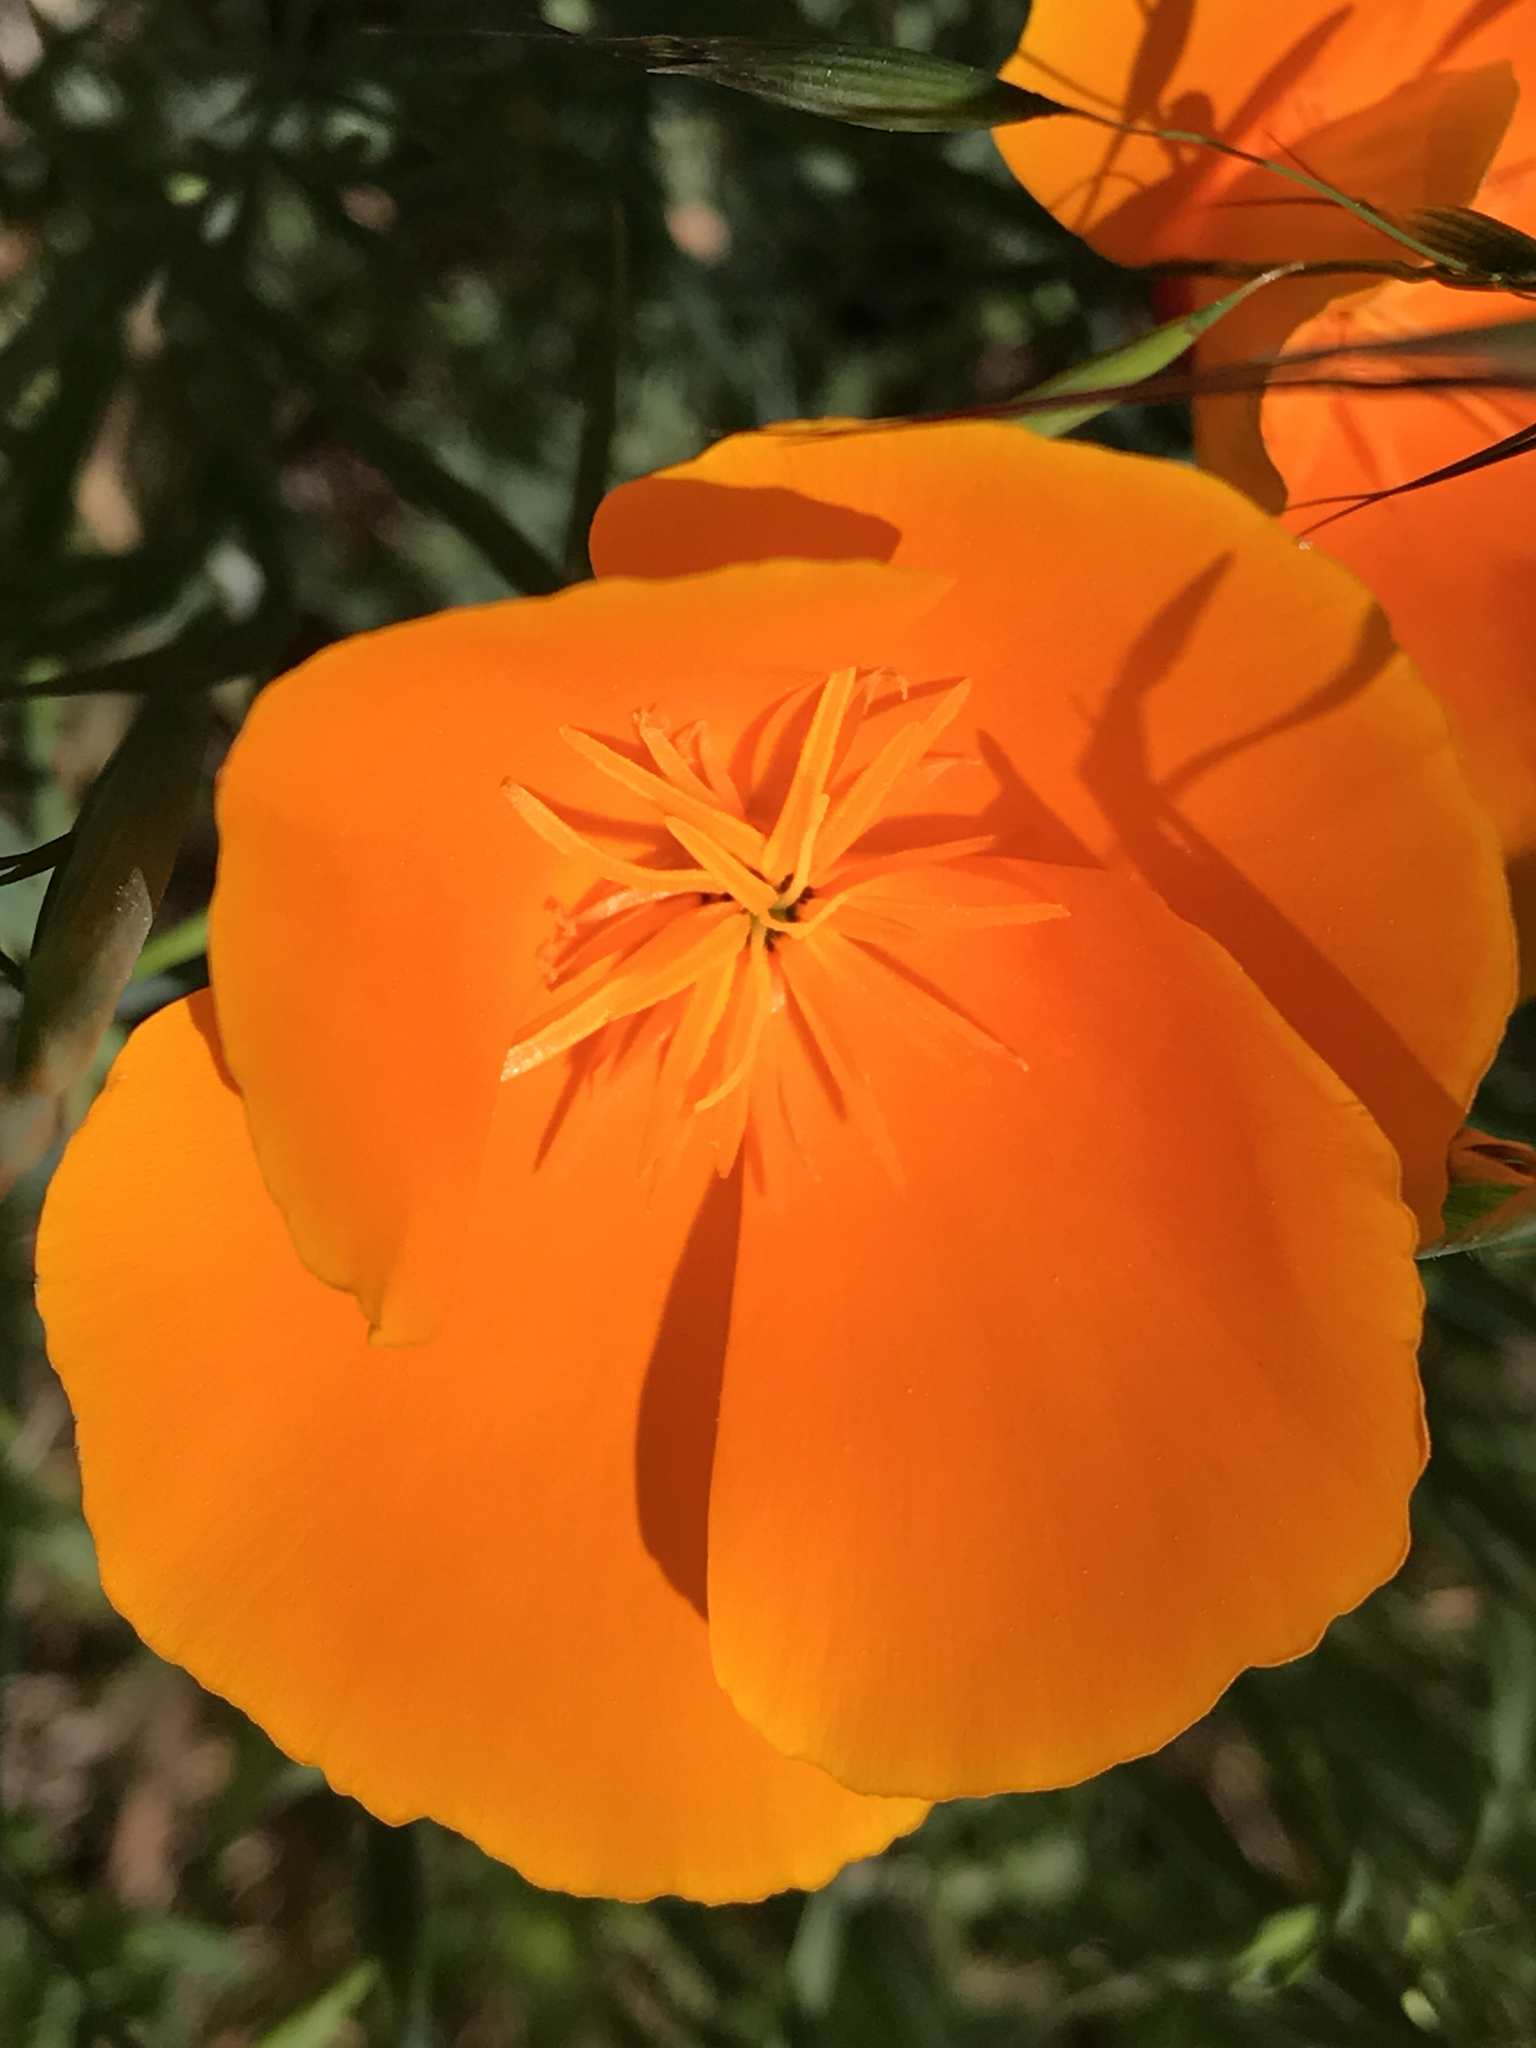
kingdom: Plantae
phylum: Tracheophyta
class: Magnoliopsida
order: Ranunculales
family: Papaveraceae
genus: Eschscholzia
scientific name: Eschscholzia californica
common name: California poppy
